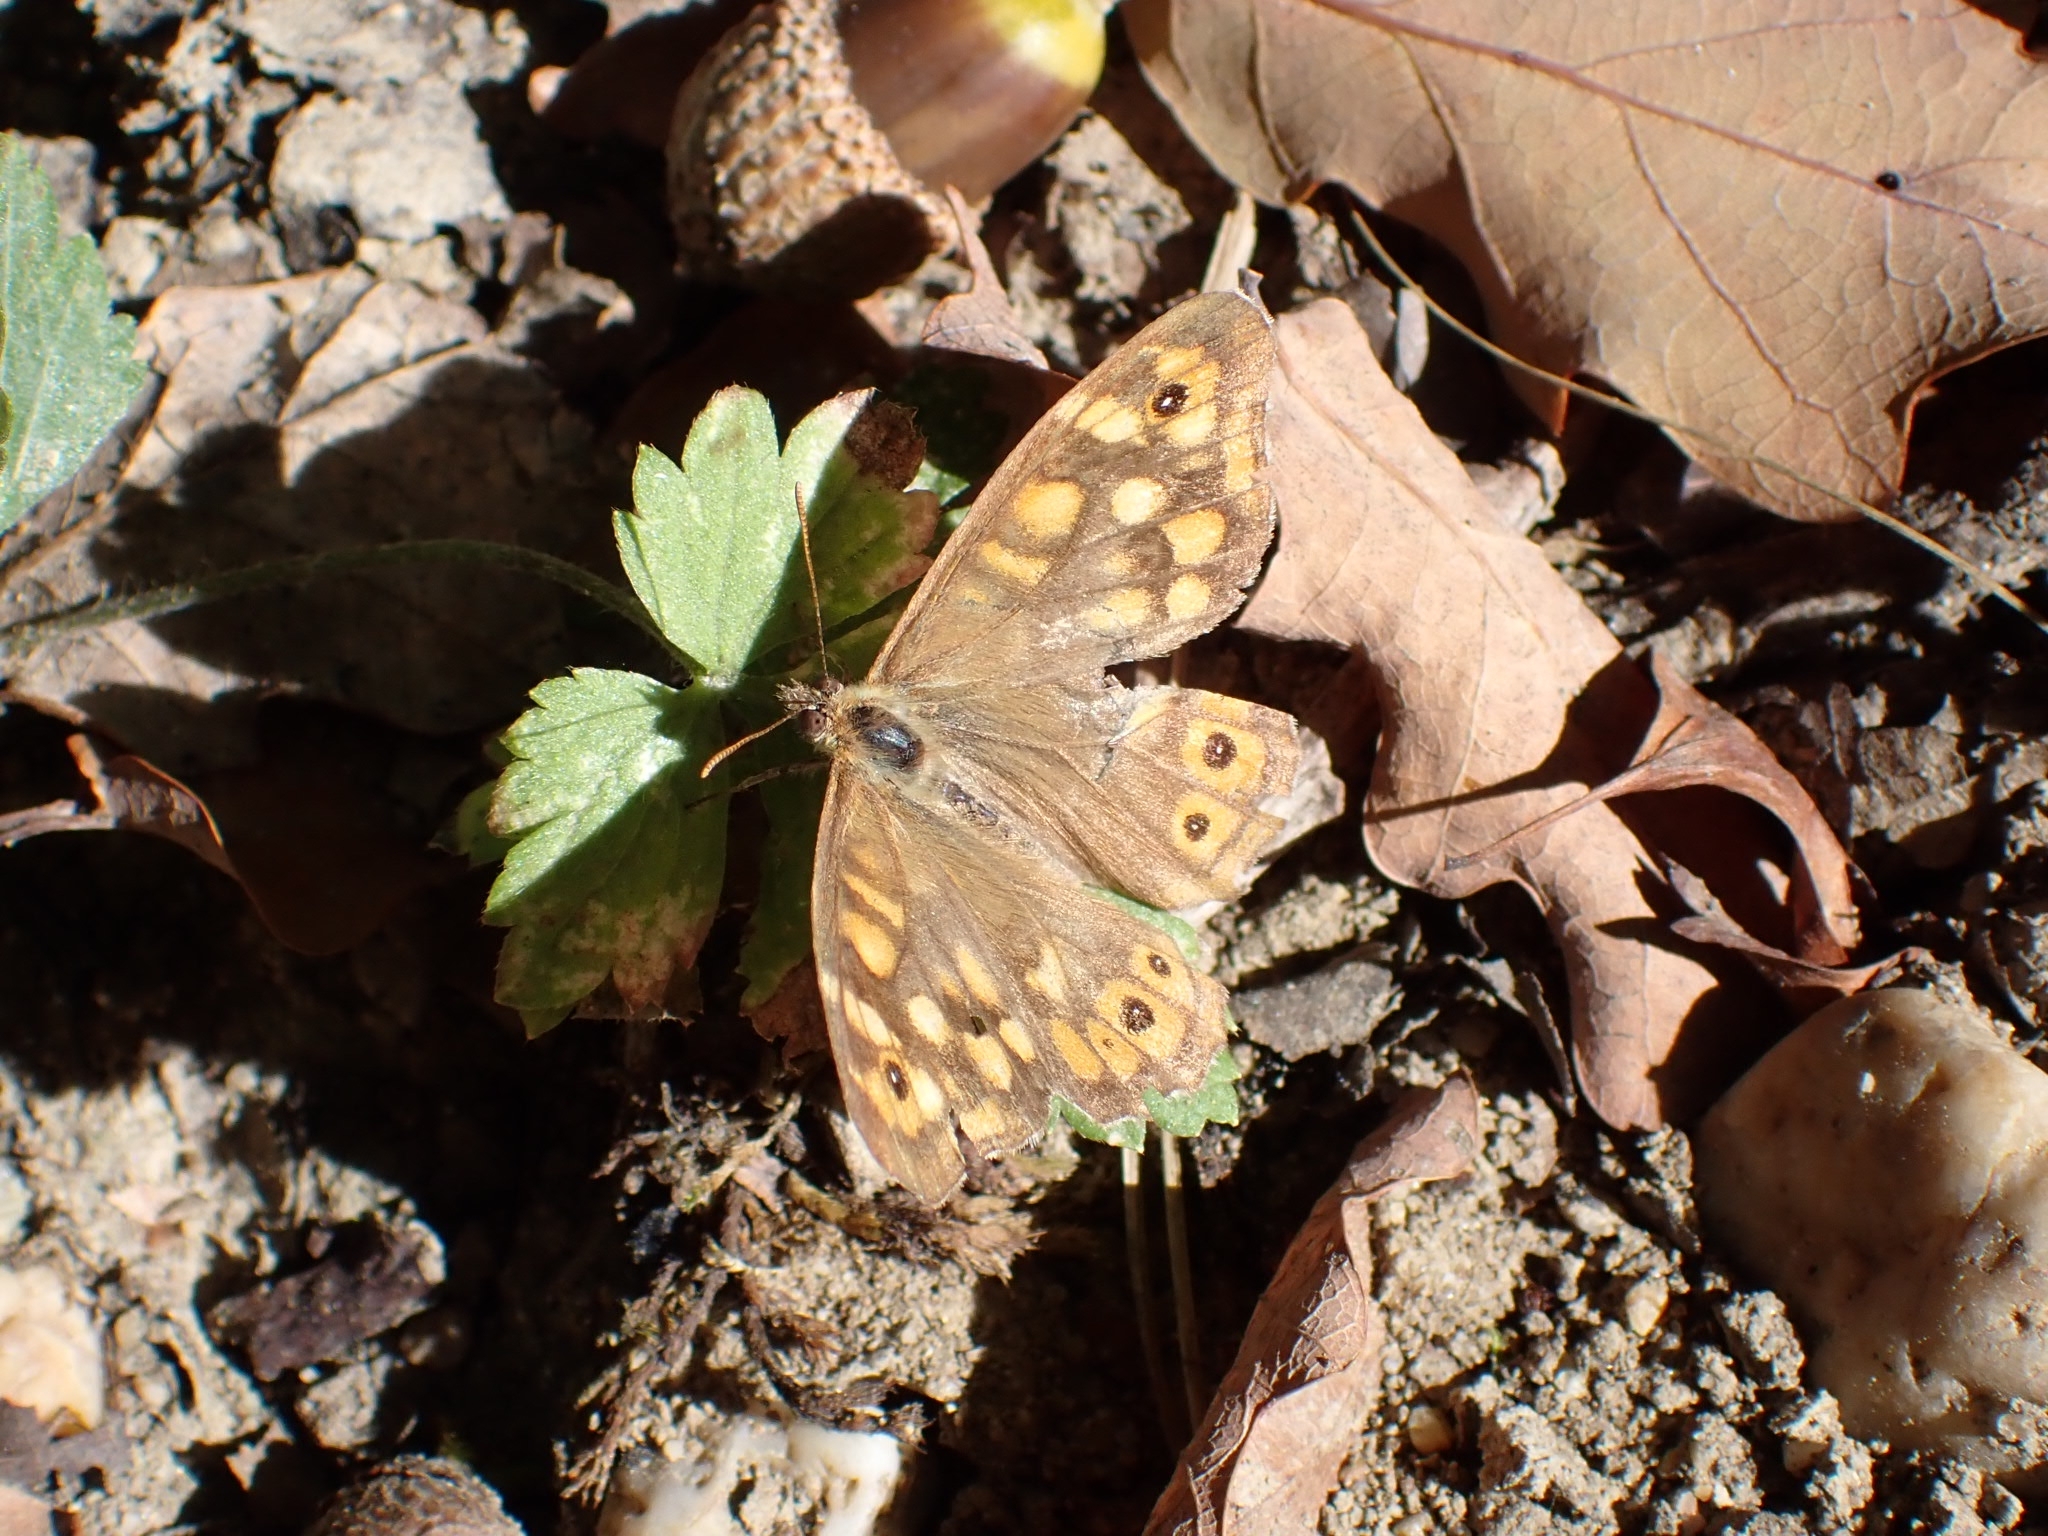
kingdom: Animalia
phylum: Arthropoda
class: Insecta
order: Lepidoptera
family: Nymphalidae
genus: Pararge
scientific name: Pararge aegeria
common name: Speckled wood
